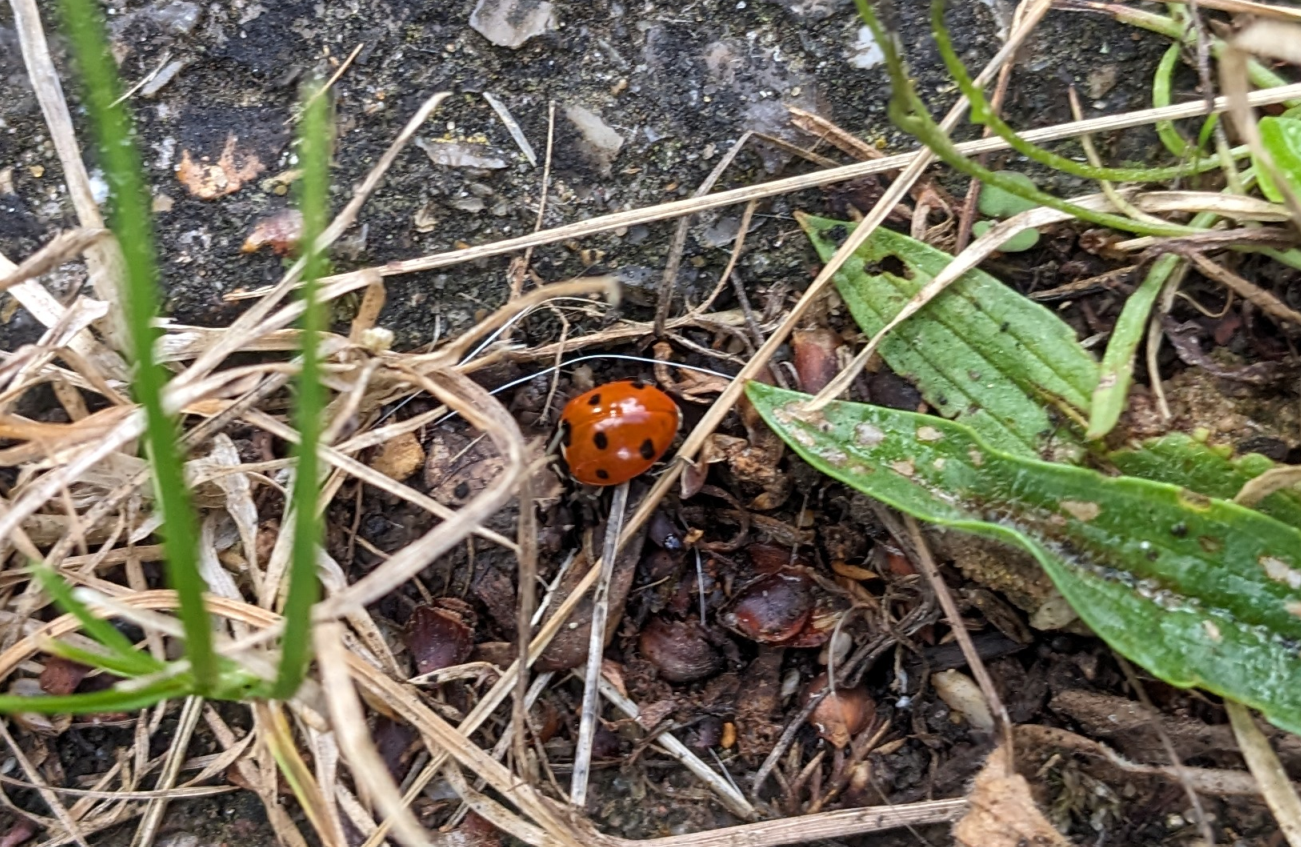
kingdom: Animalia
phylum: Arthropoda
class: Insecta
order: Coleoptera
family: Coccinellidae
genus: Coccinella
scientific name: Coccinella septempunctata
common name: Sevenspotted lady beetle
